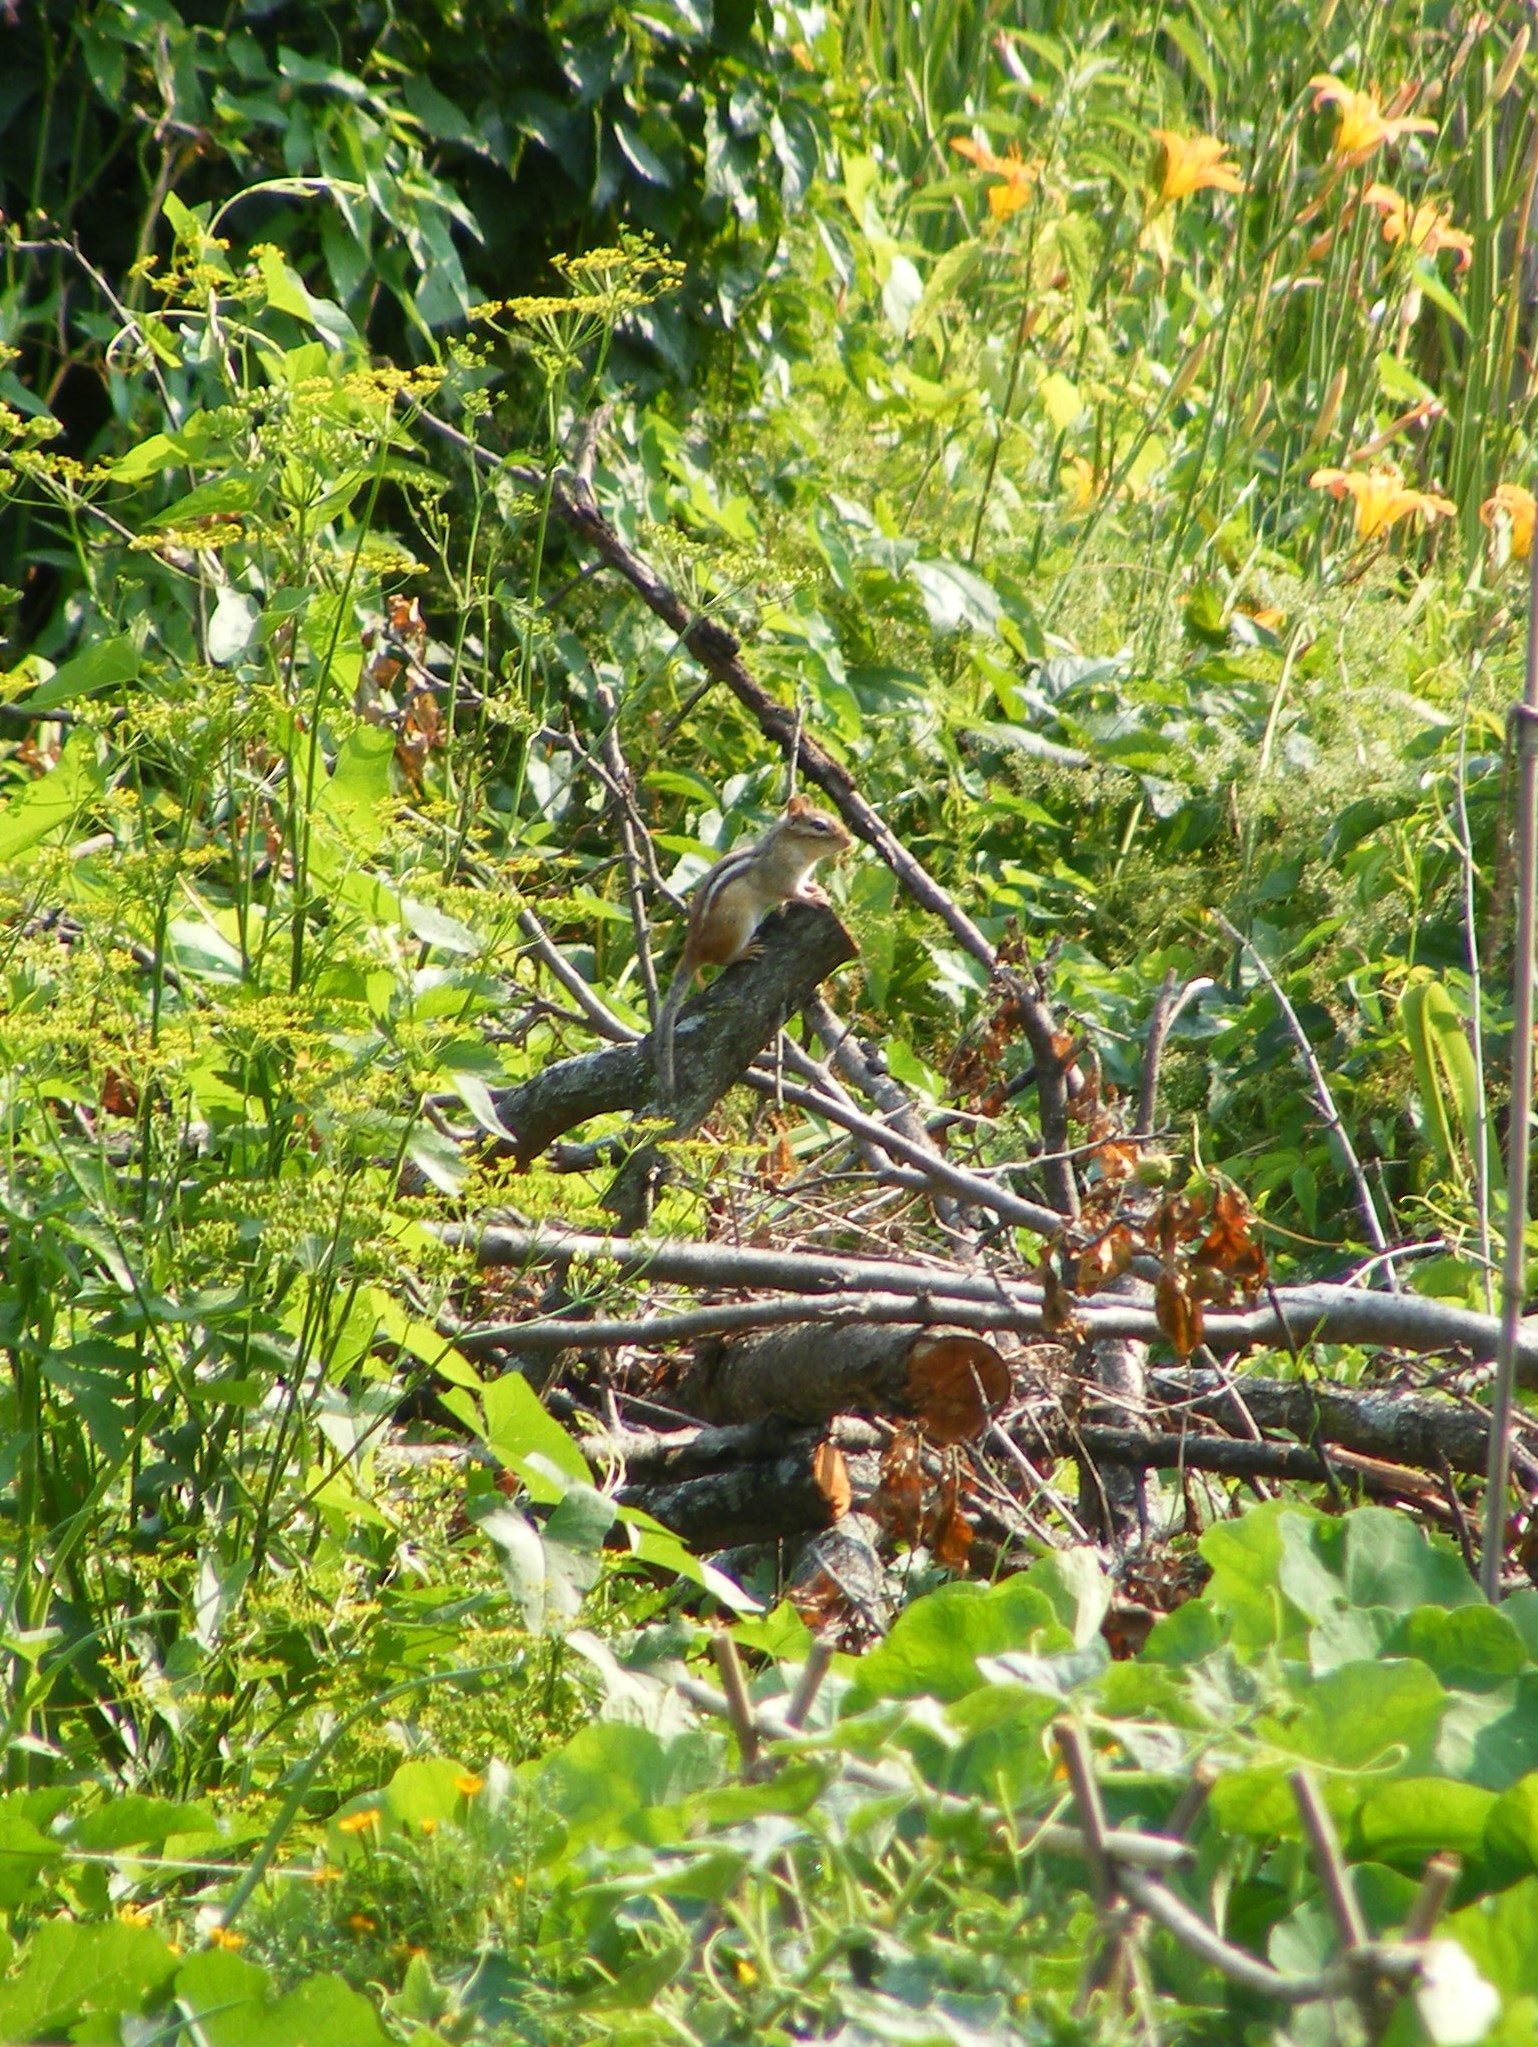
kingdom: Animalia
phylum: Chordata
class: Mammalia
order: Rodentia
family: Sciuridae
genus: Tamias
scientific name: Tamias striatus
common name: Eastern chipmunk
